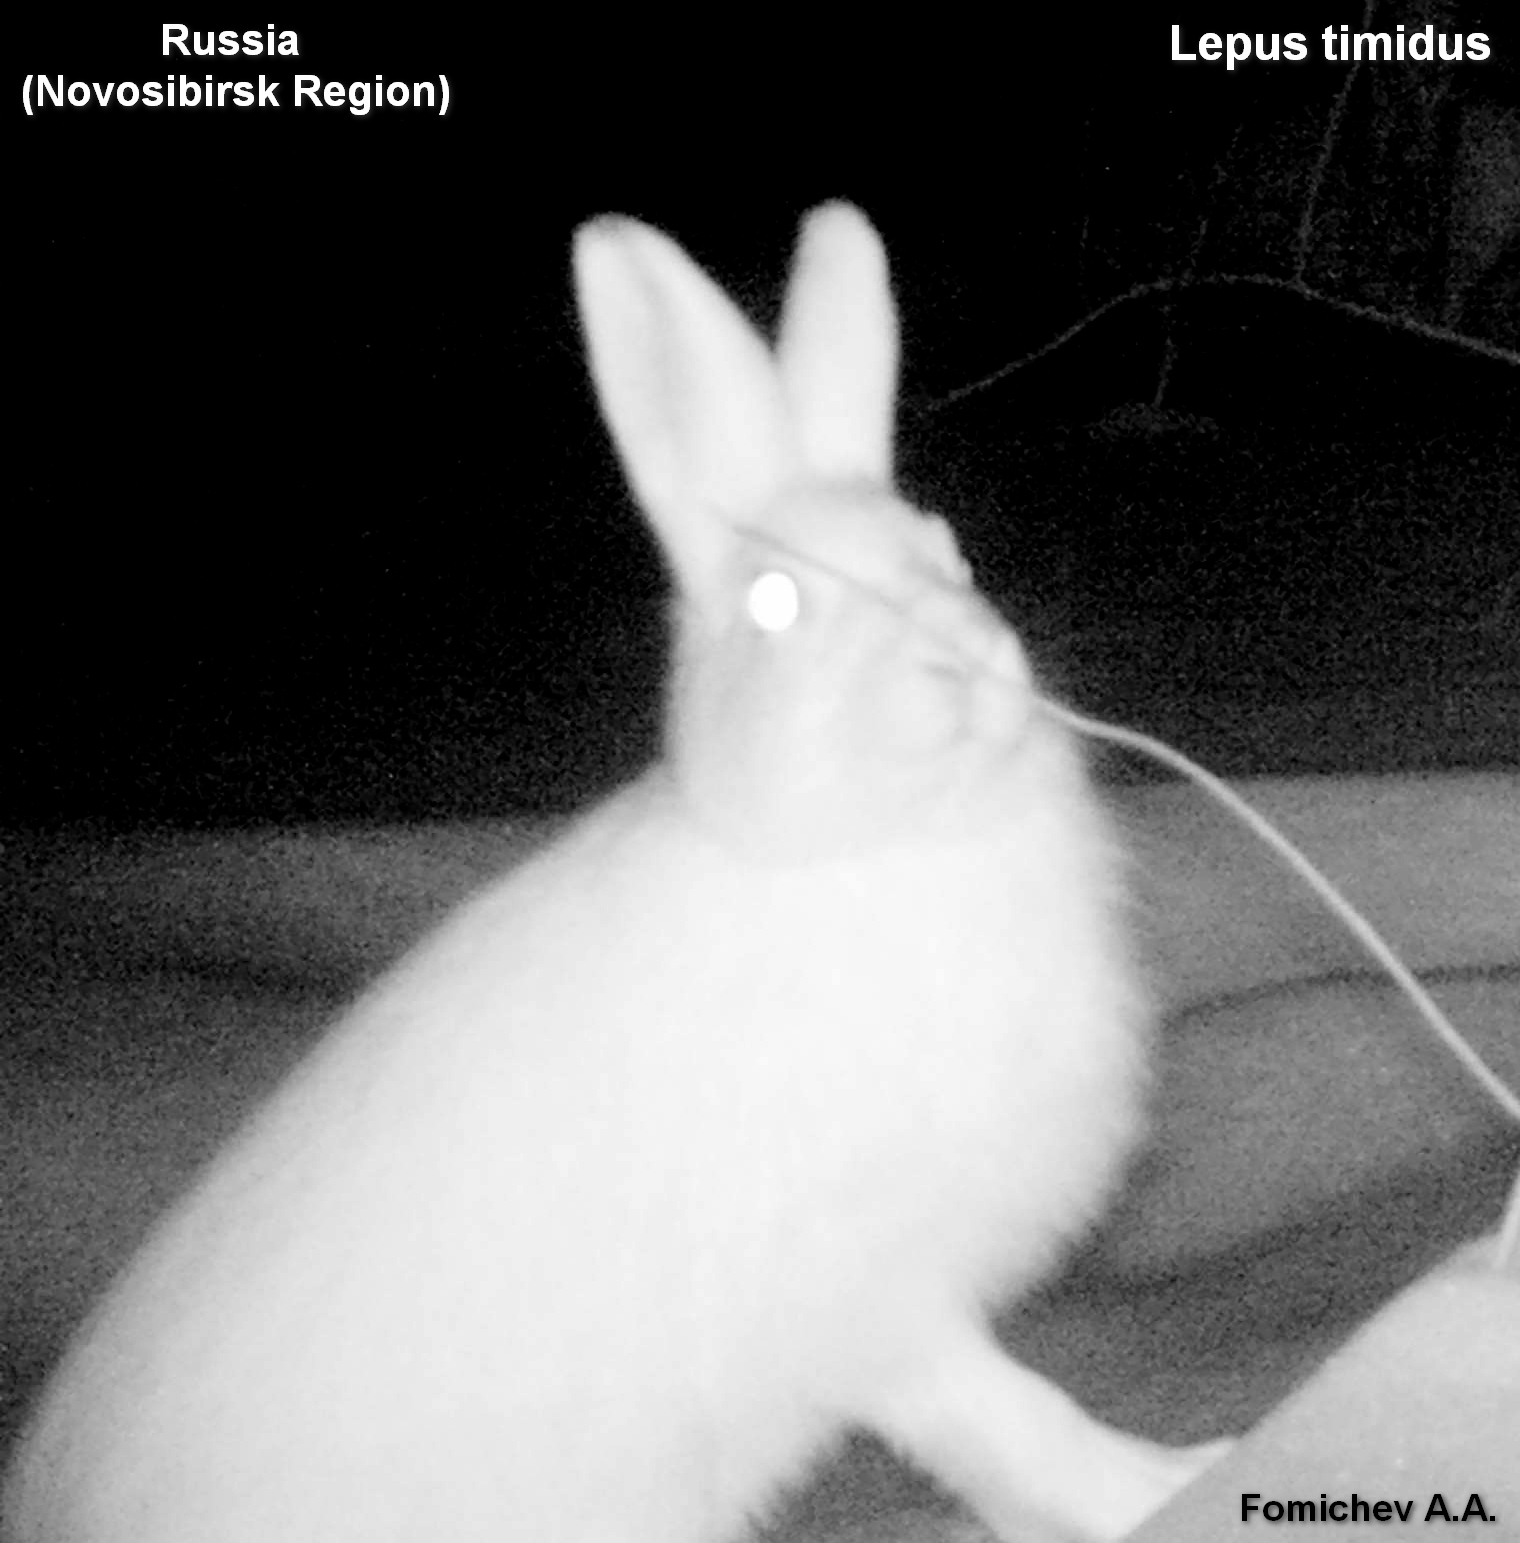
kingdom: Animalia
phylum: Chordata
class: Mammalia
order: Lagomorpha
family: Leporidae
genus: Lepus
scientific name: Lepus timidus
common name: Mountain hare
